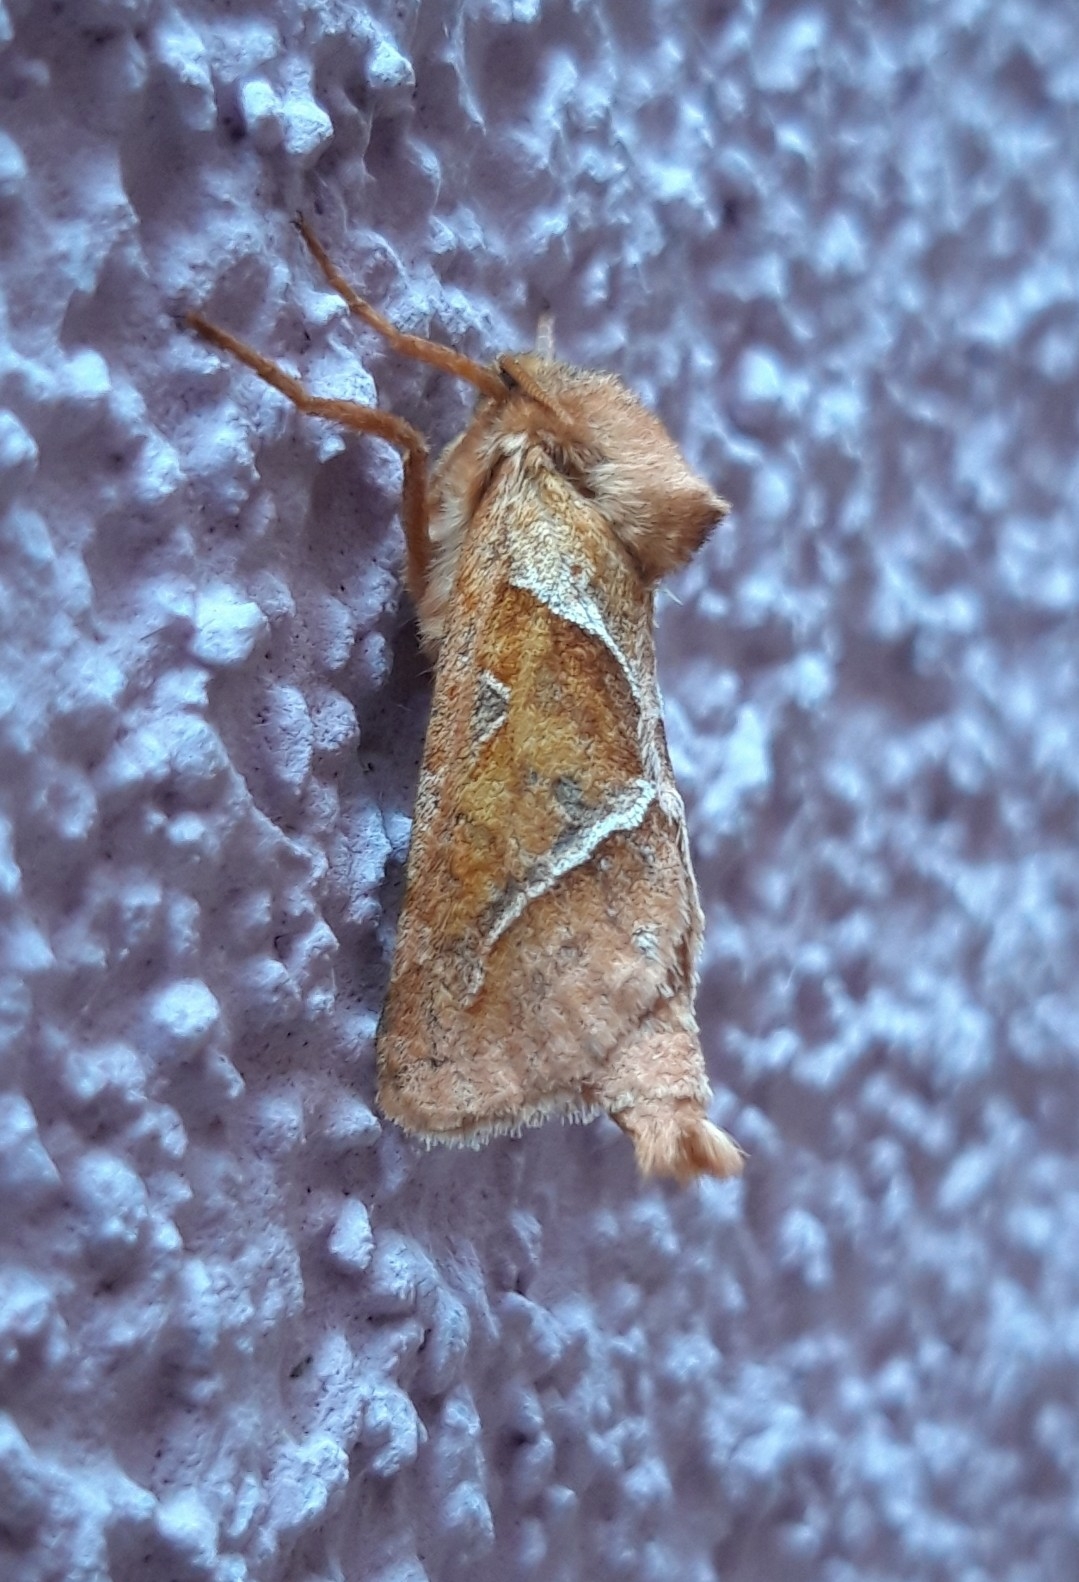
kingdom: Animalia
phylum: Arthropoda
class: Insecta
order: Lepidoptera
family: Hepialidae
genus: Triodia
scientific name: Triodia sylvina
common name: Orange swift
